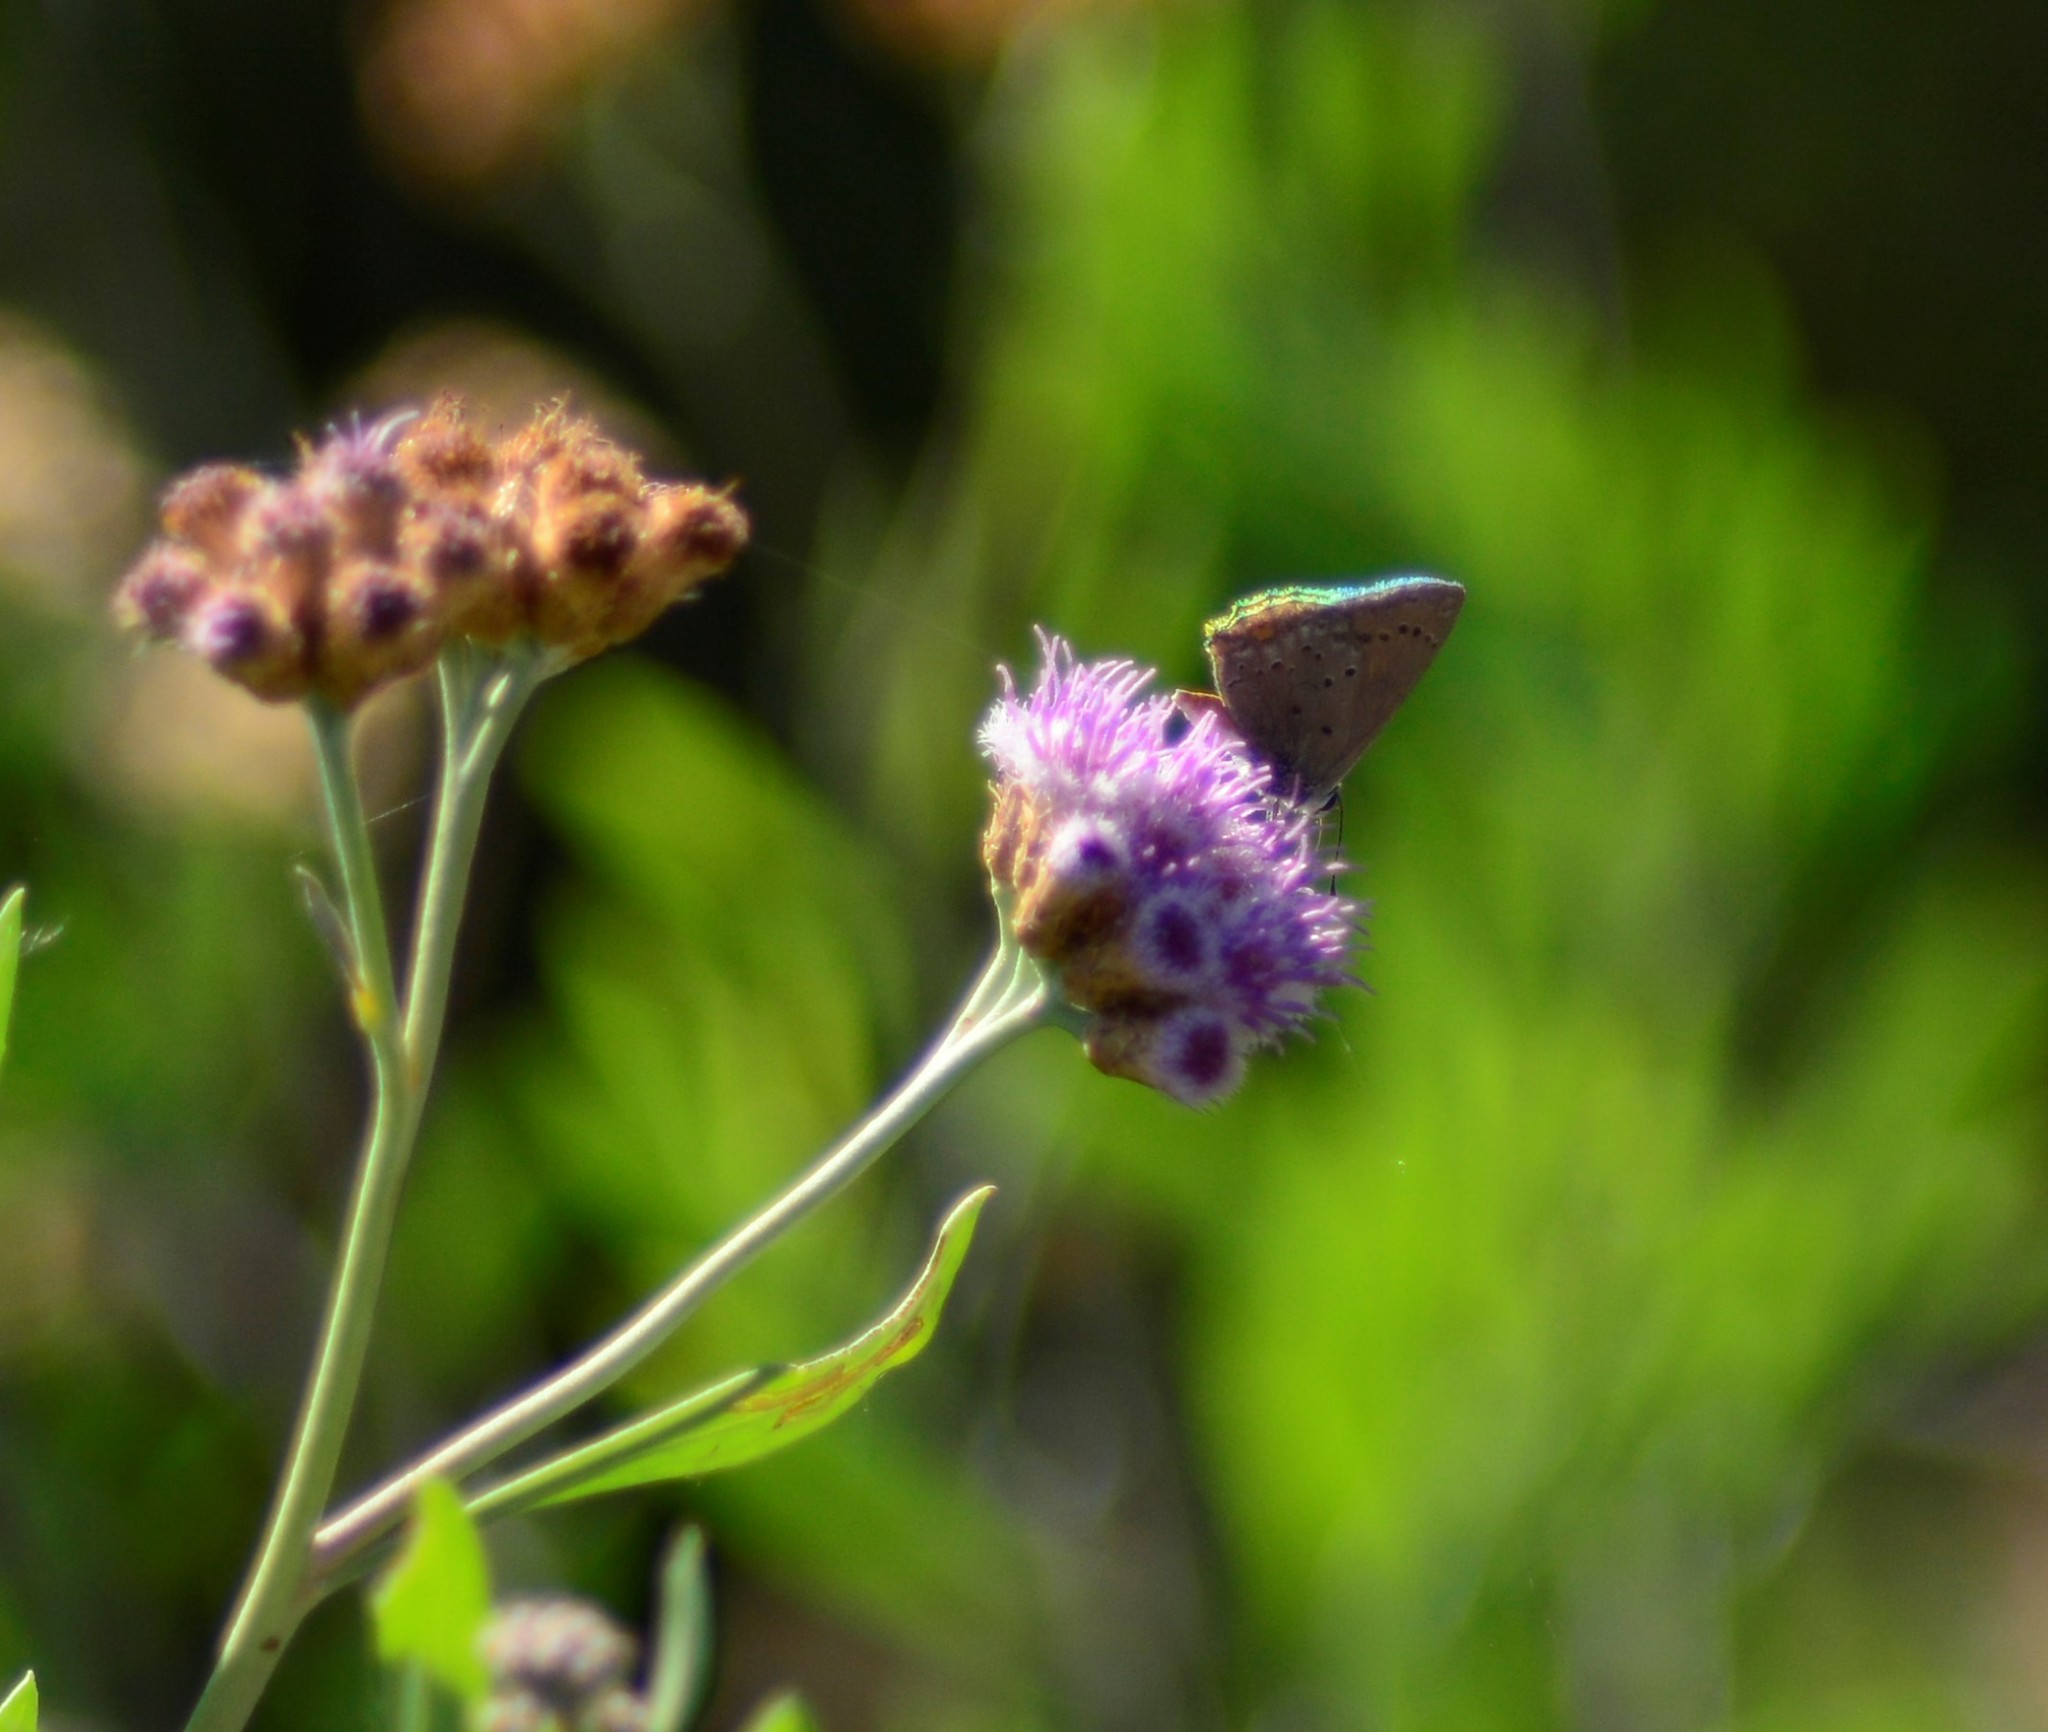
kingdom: Animalia
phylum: Arthropoda
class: Insecta
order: Lepidoptera
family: Lycaenidae
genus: Strymon
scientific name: Strymon eurytulus
